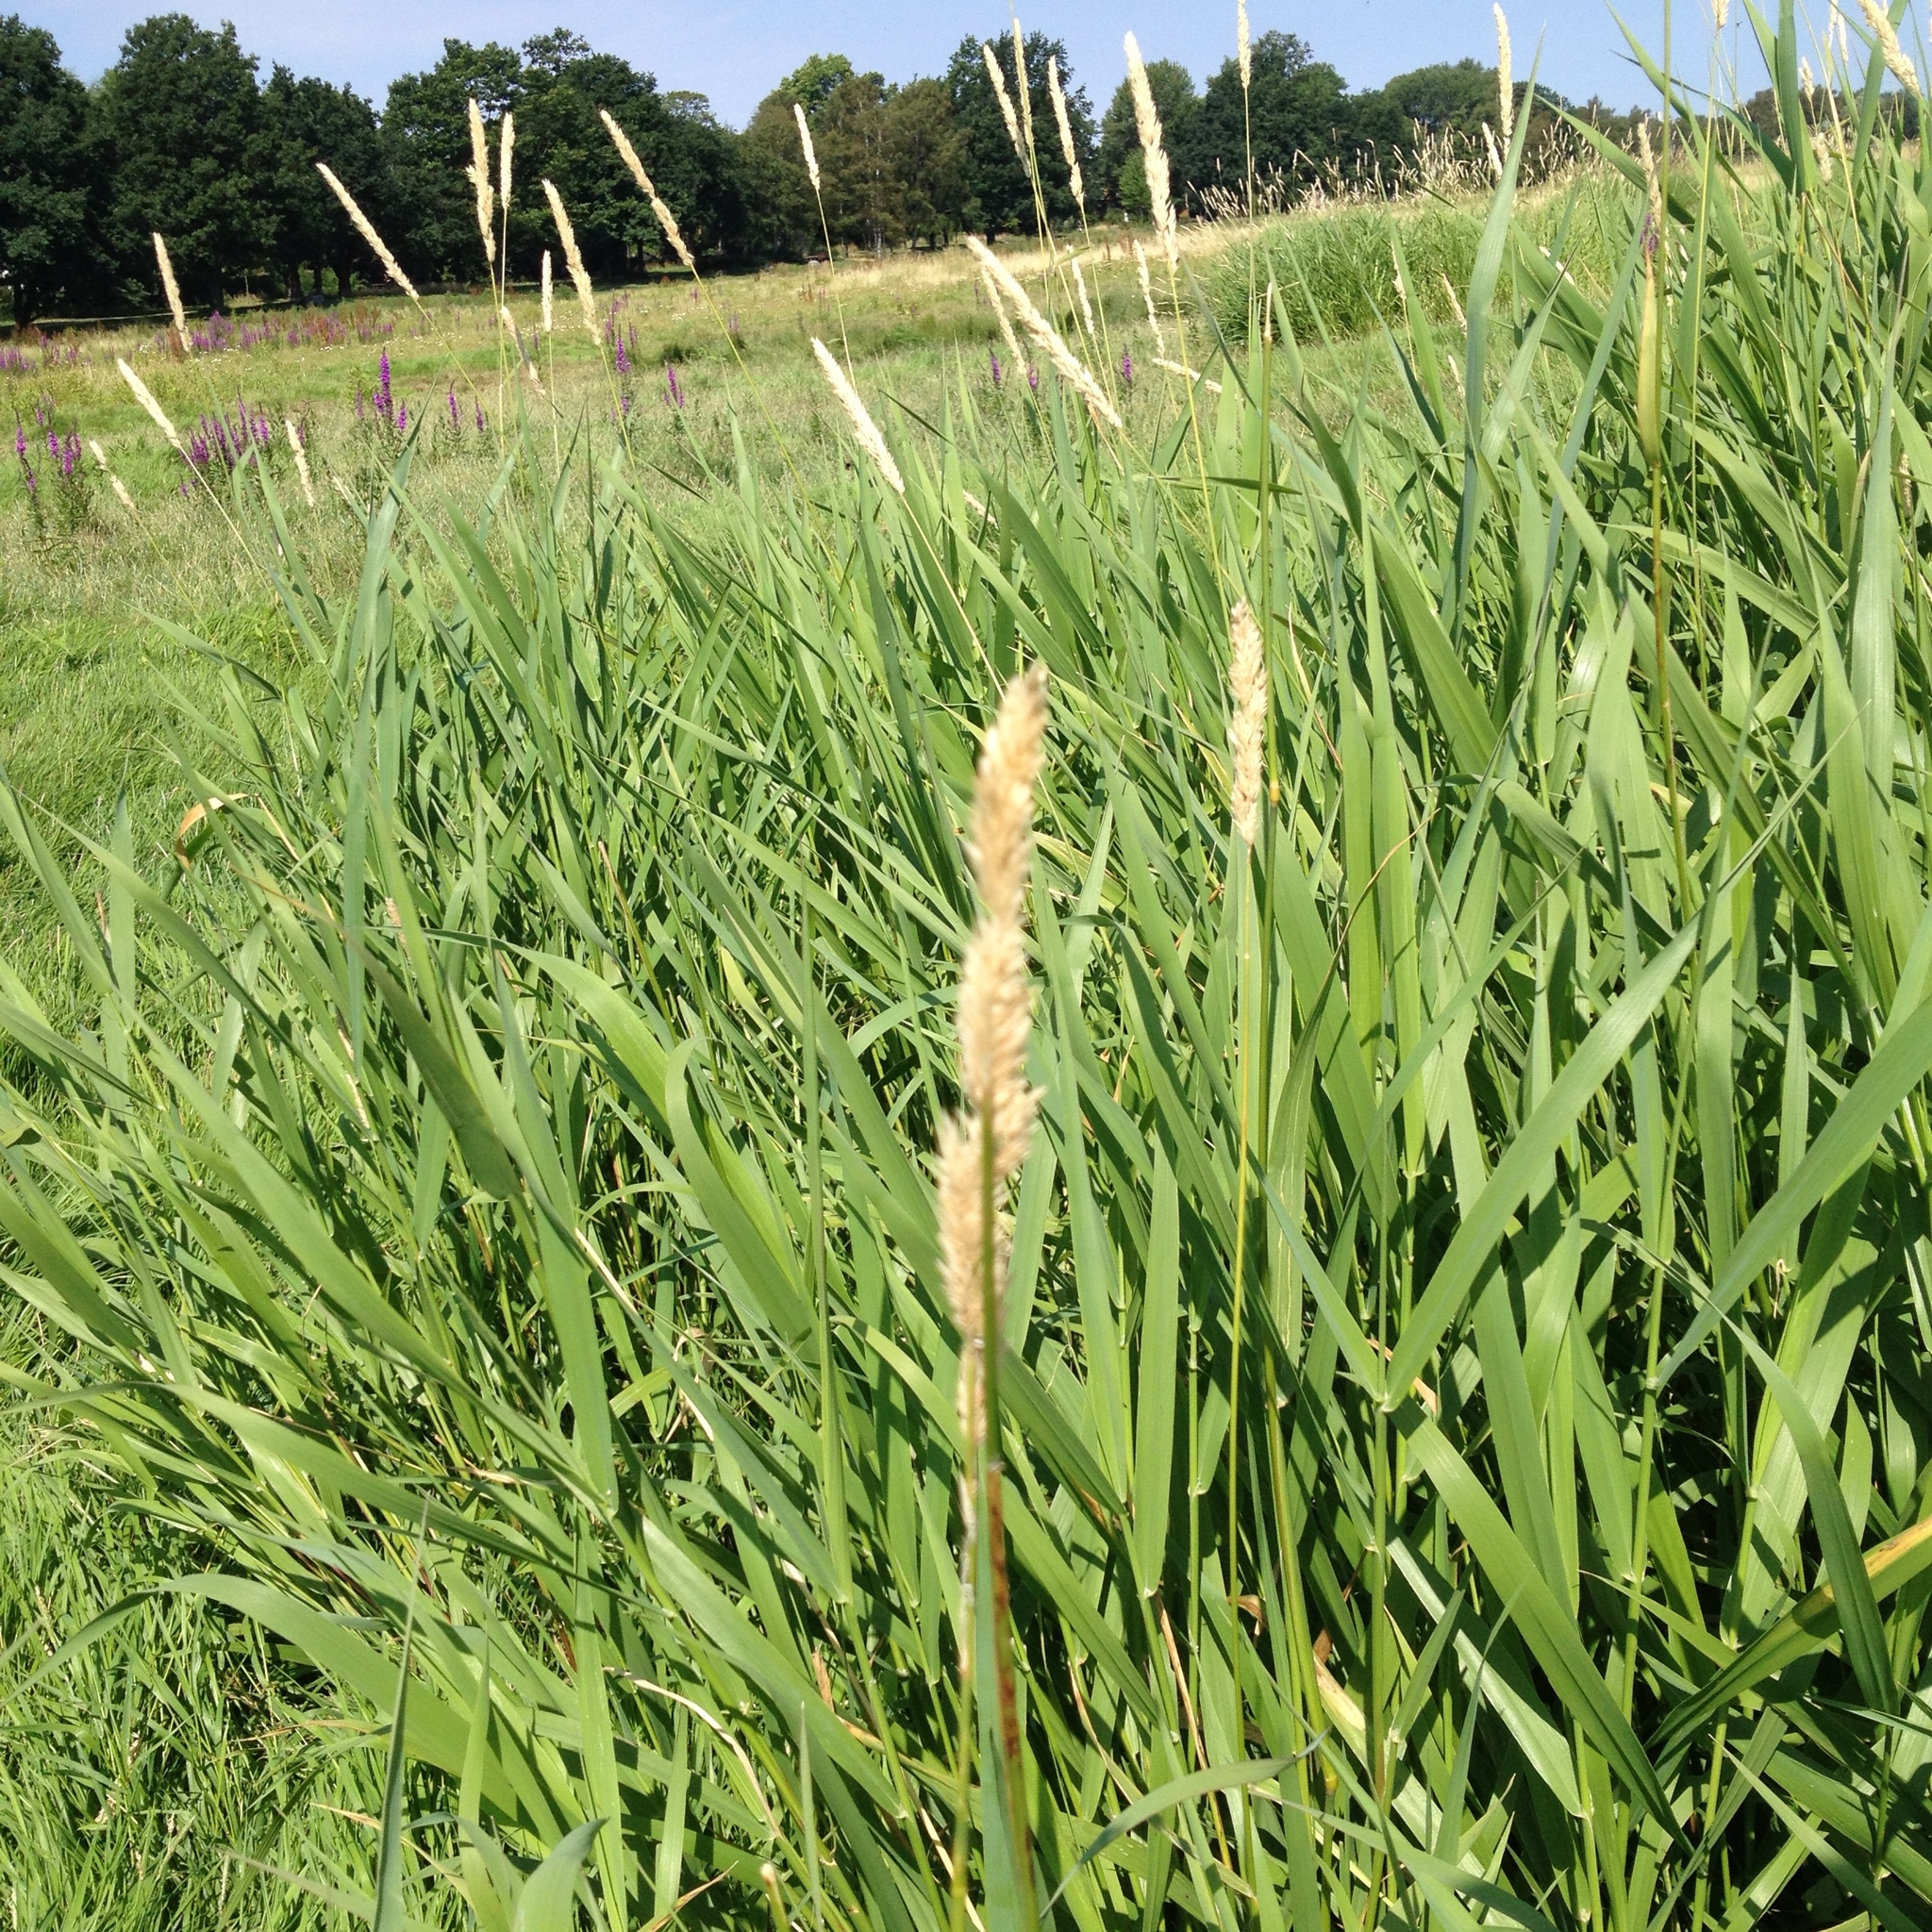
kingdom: Plantae
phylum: Tracheophyta
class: Liliopsida
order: Poales
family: Poaceae
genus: Phalaris
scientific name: Phalaris arundinacea
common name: Reed canary-grass
